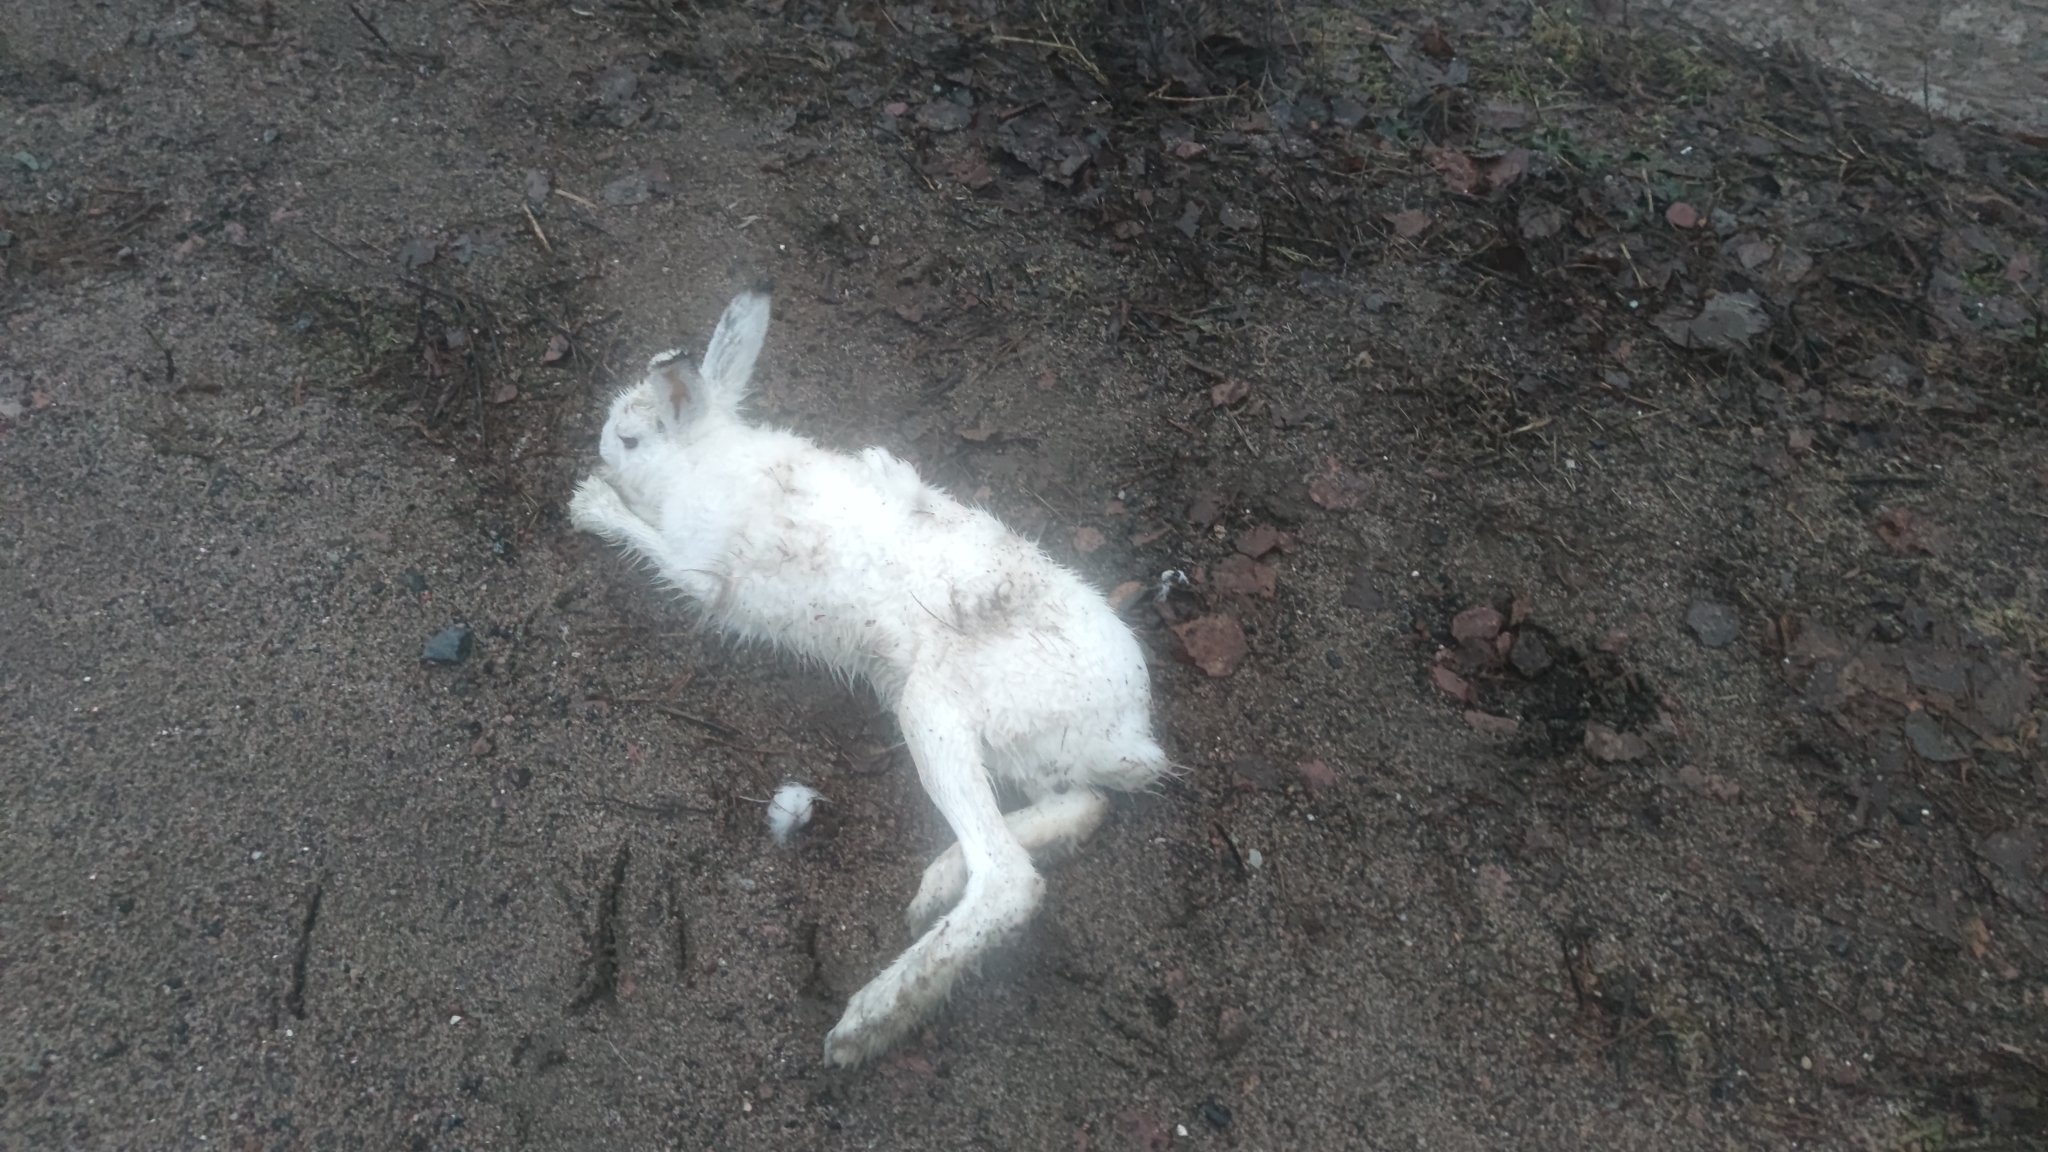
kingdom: Animalia
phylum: Chordata
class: Mammalia
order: Lagomorpha
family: Leporidae
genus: Lepus
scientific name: Lepus timidus
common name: Mountain hare
